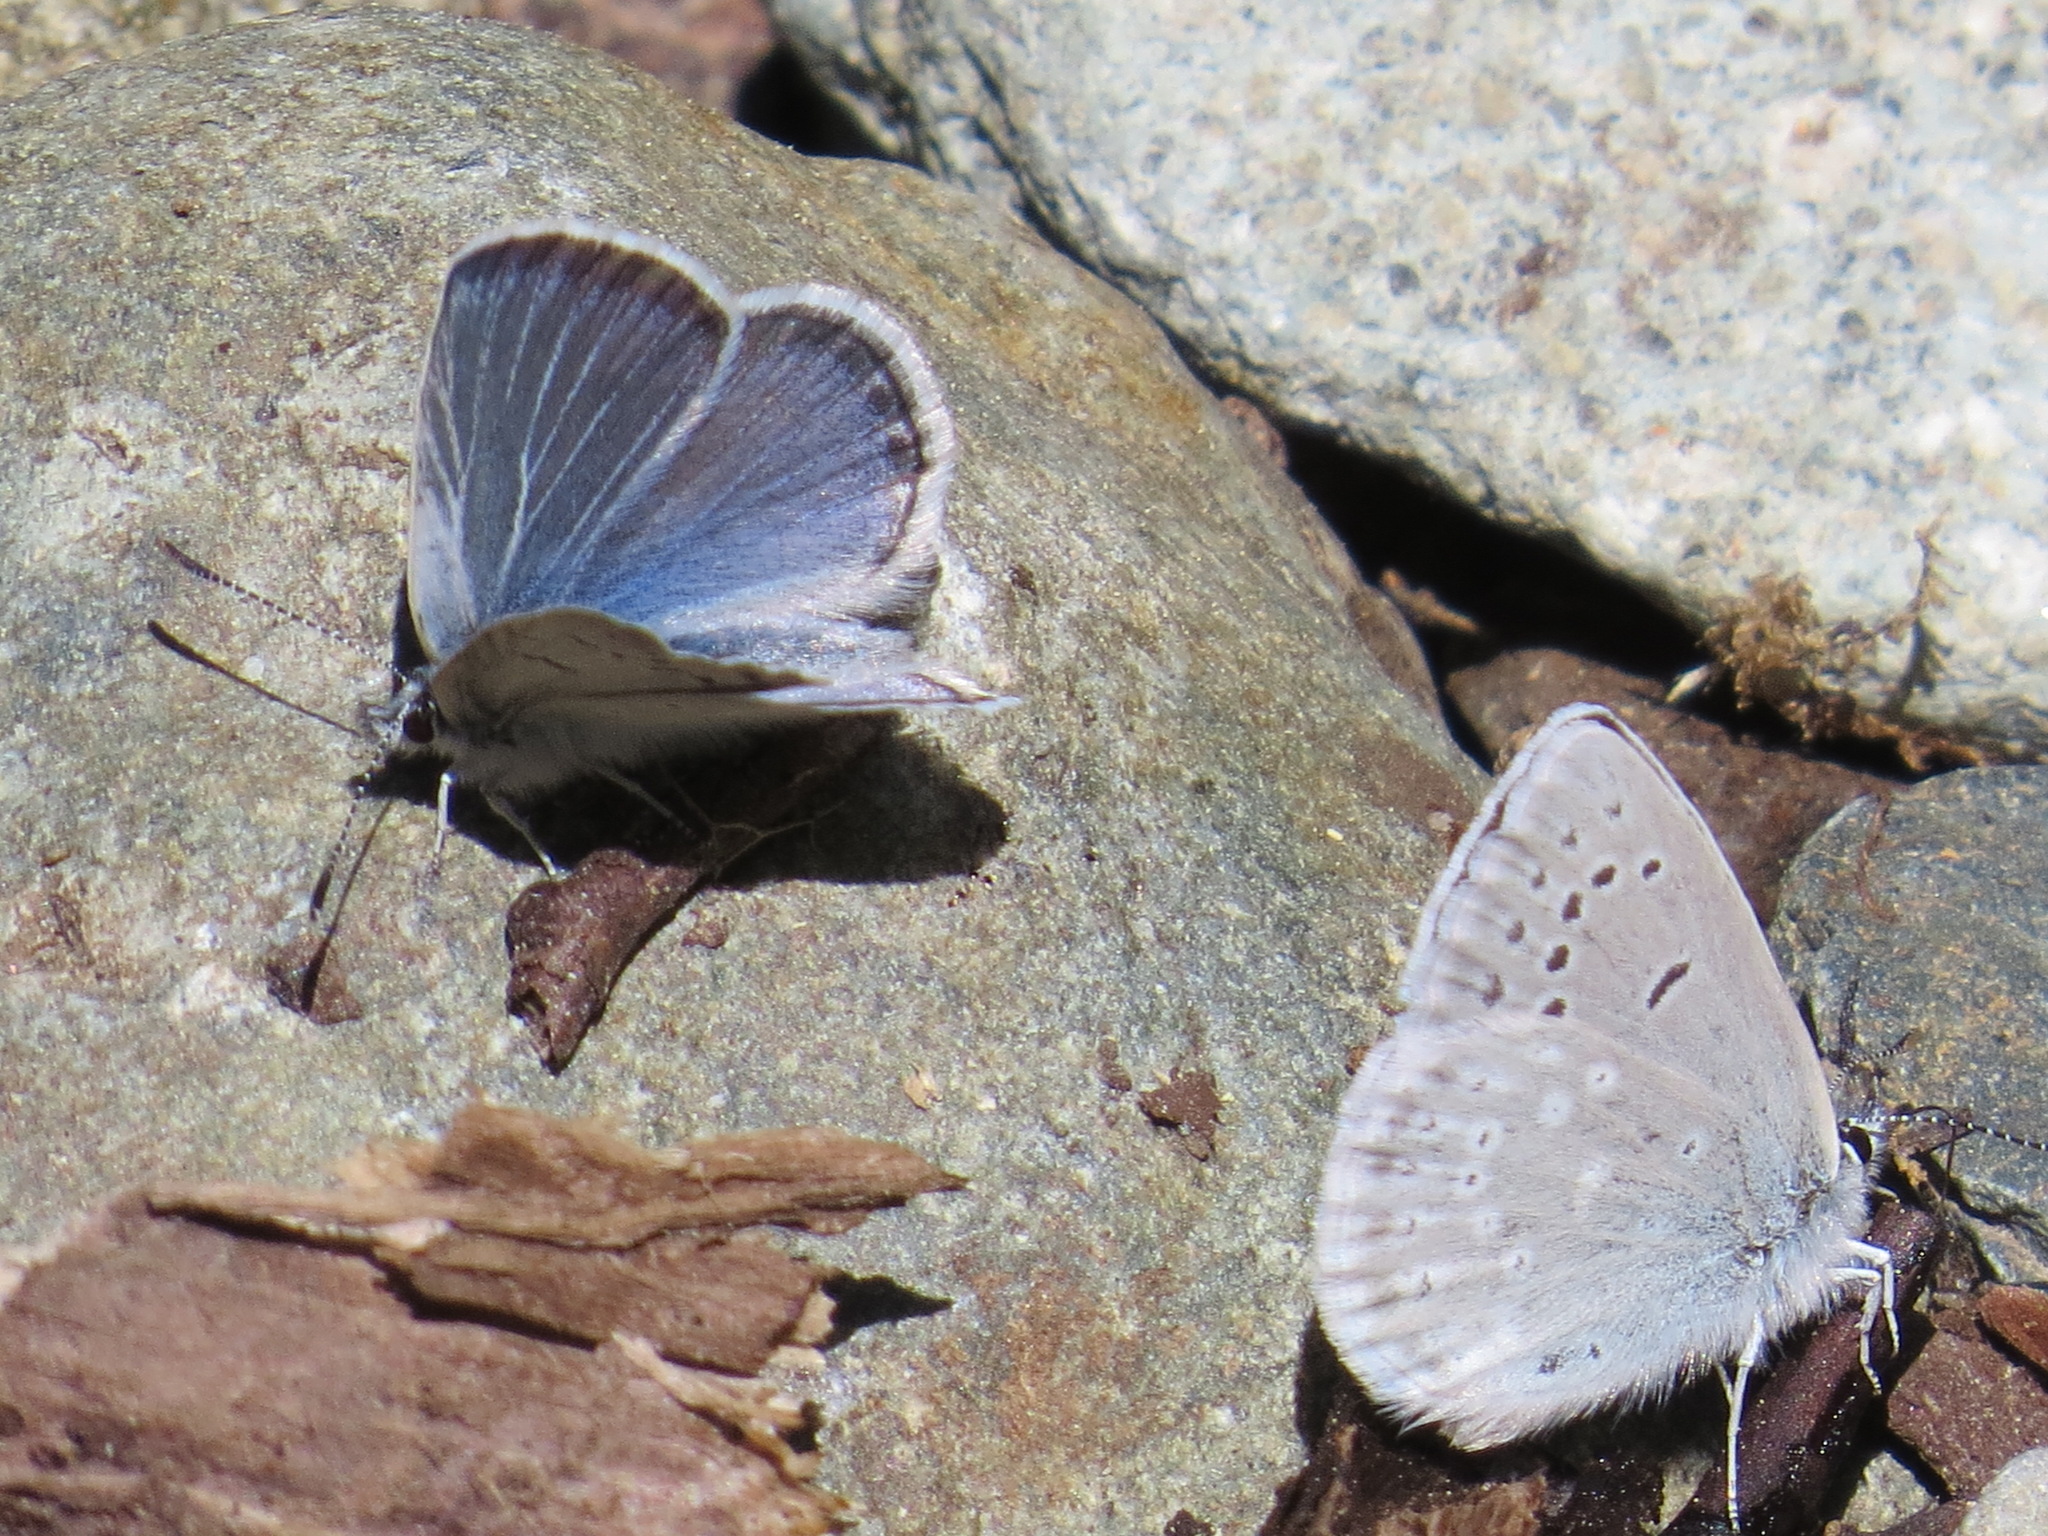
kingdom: Animalia
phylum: Arthropoda
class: Insecta
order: Lepidoptera
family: Lycaenidae
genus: Icaricia
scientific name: Icaricia icarioides
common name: Boisduval's blue
